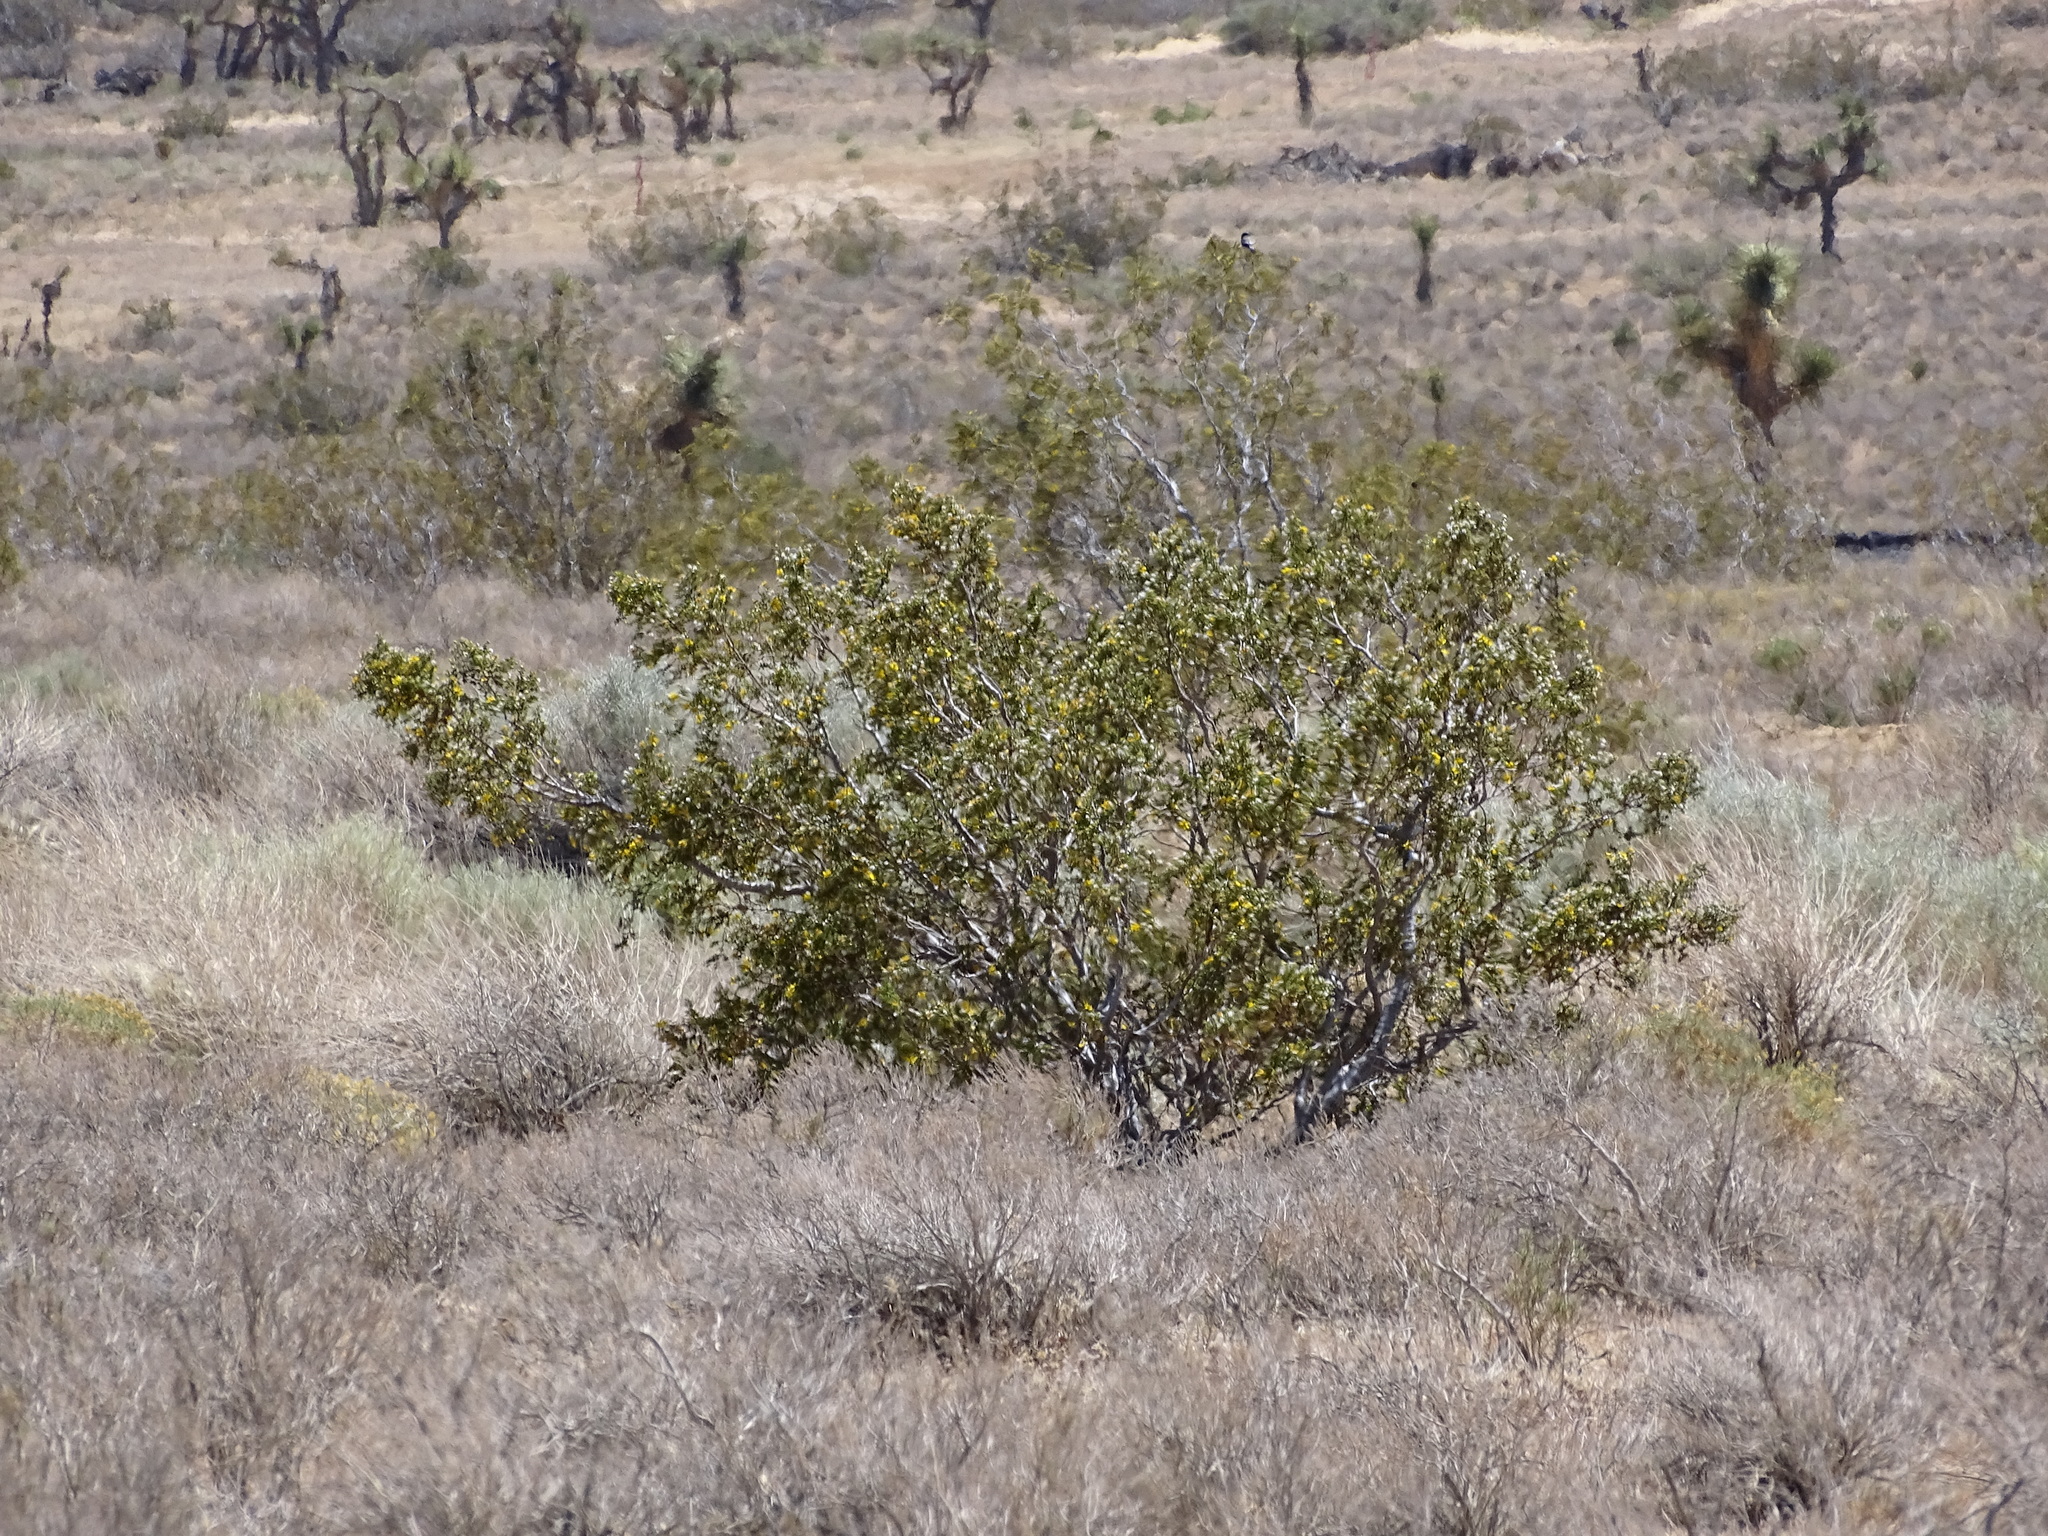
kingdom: Plantae
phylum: Tracheophyta
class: Magnoliopsida
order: Zygophyllales
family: Zygophyllaceae
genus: Larrea
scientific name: Larrea tridentata
